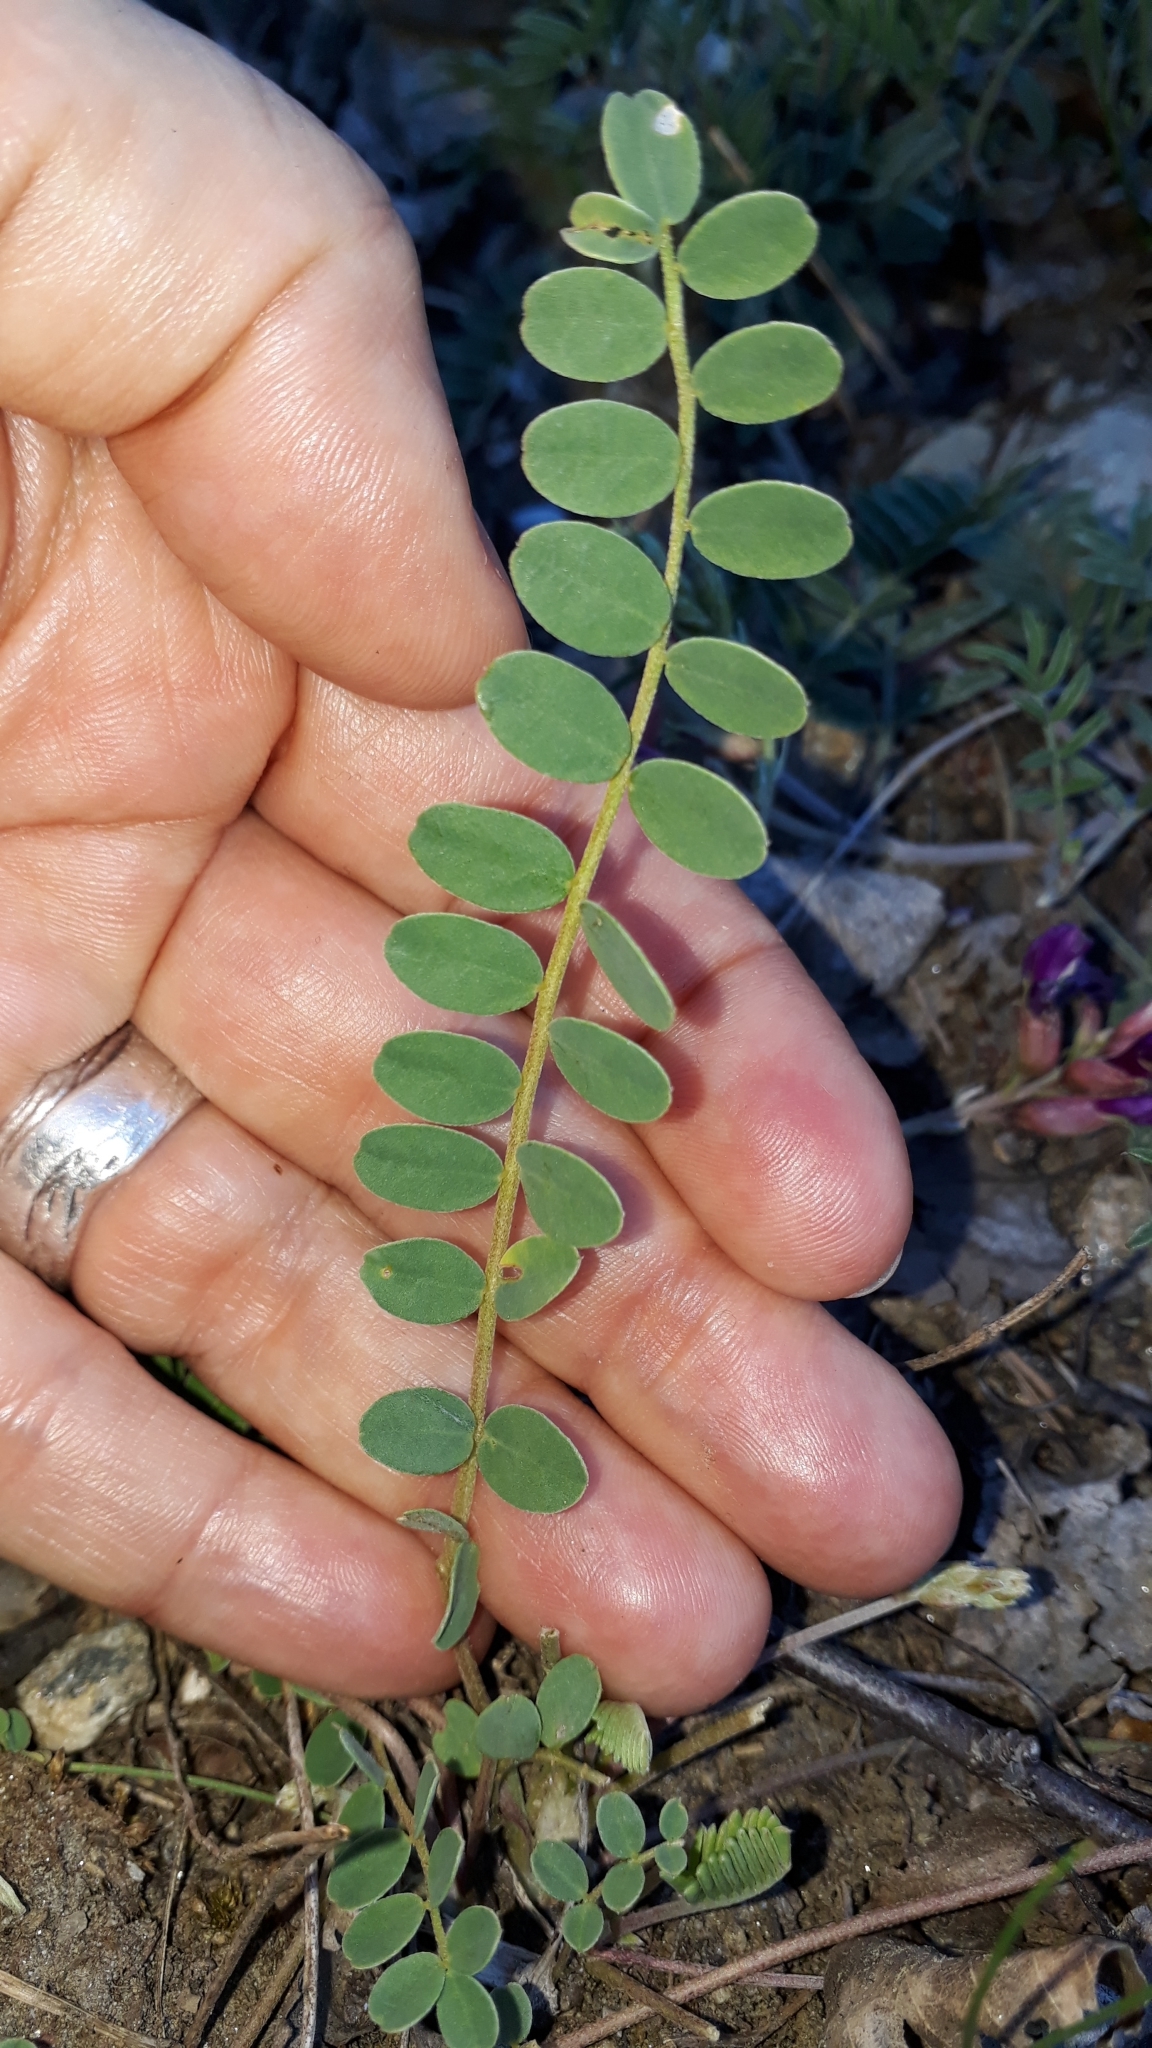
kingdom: Plantae
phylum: Tracheophyta
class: Magnoliopsida
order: Fabales
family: Fabaceae
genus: Astragalus
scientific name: Astragalus monspessulanus
